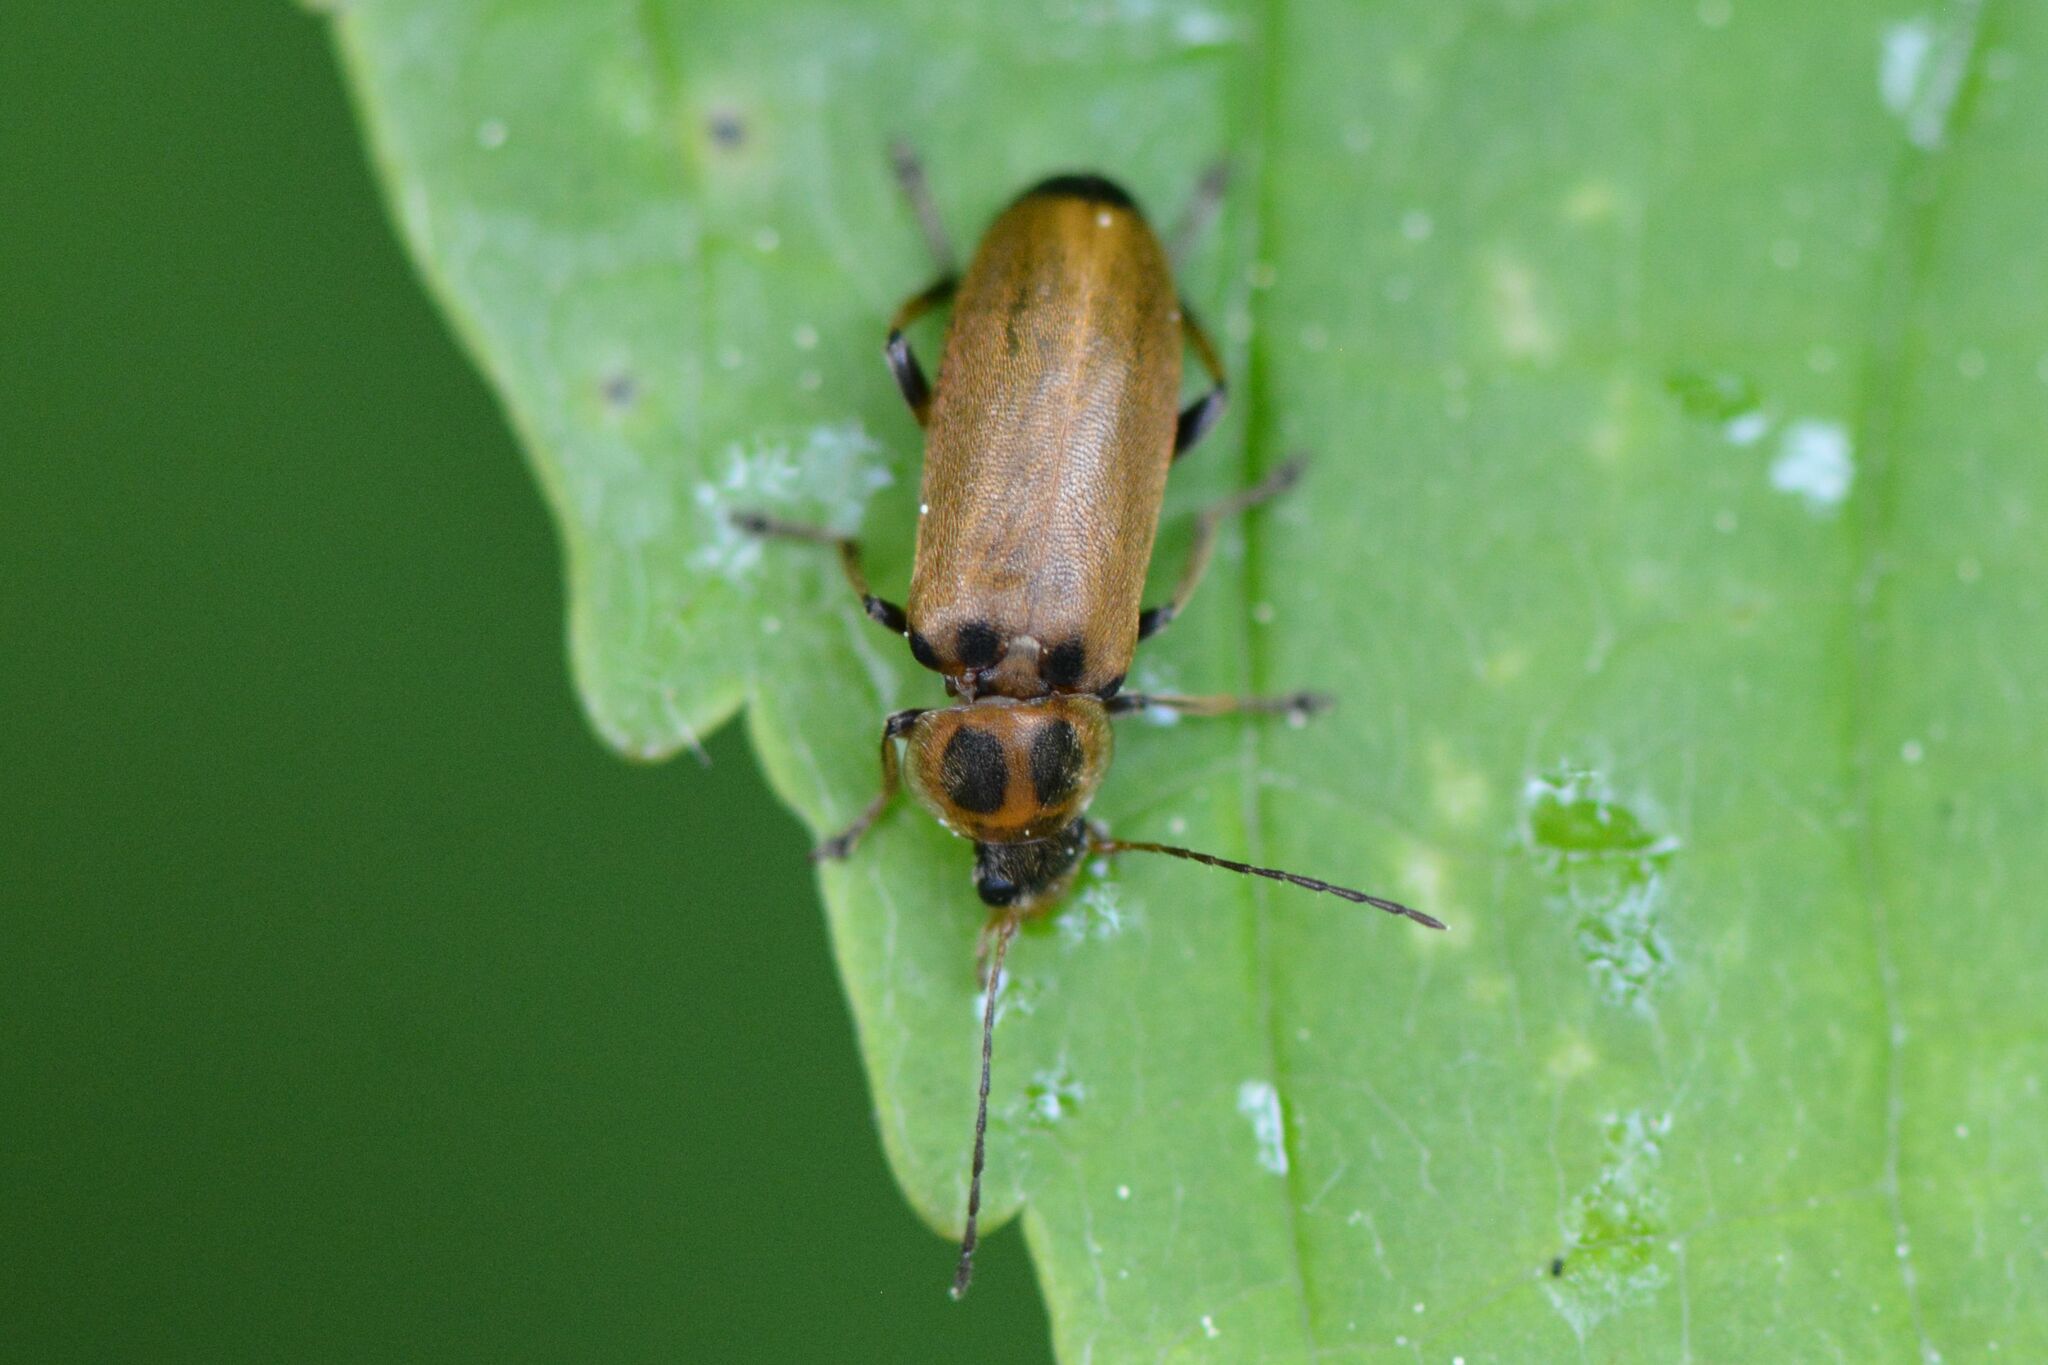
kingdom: Animalia
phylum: Arthropoda
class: Insecta
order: Coleoptera
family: Melandryidae
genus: Osphya
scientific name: Osphya bipunctata
